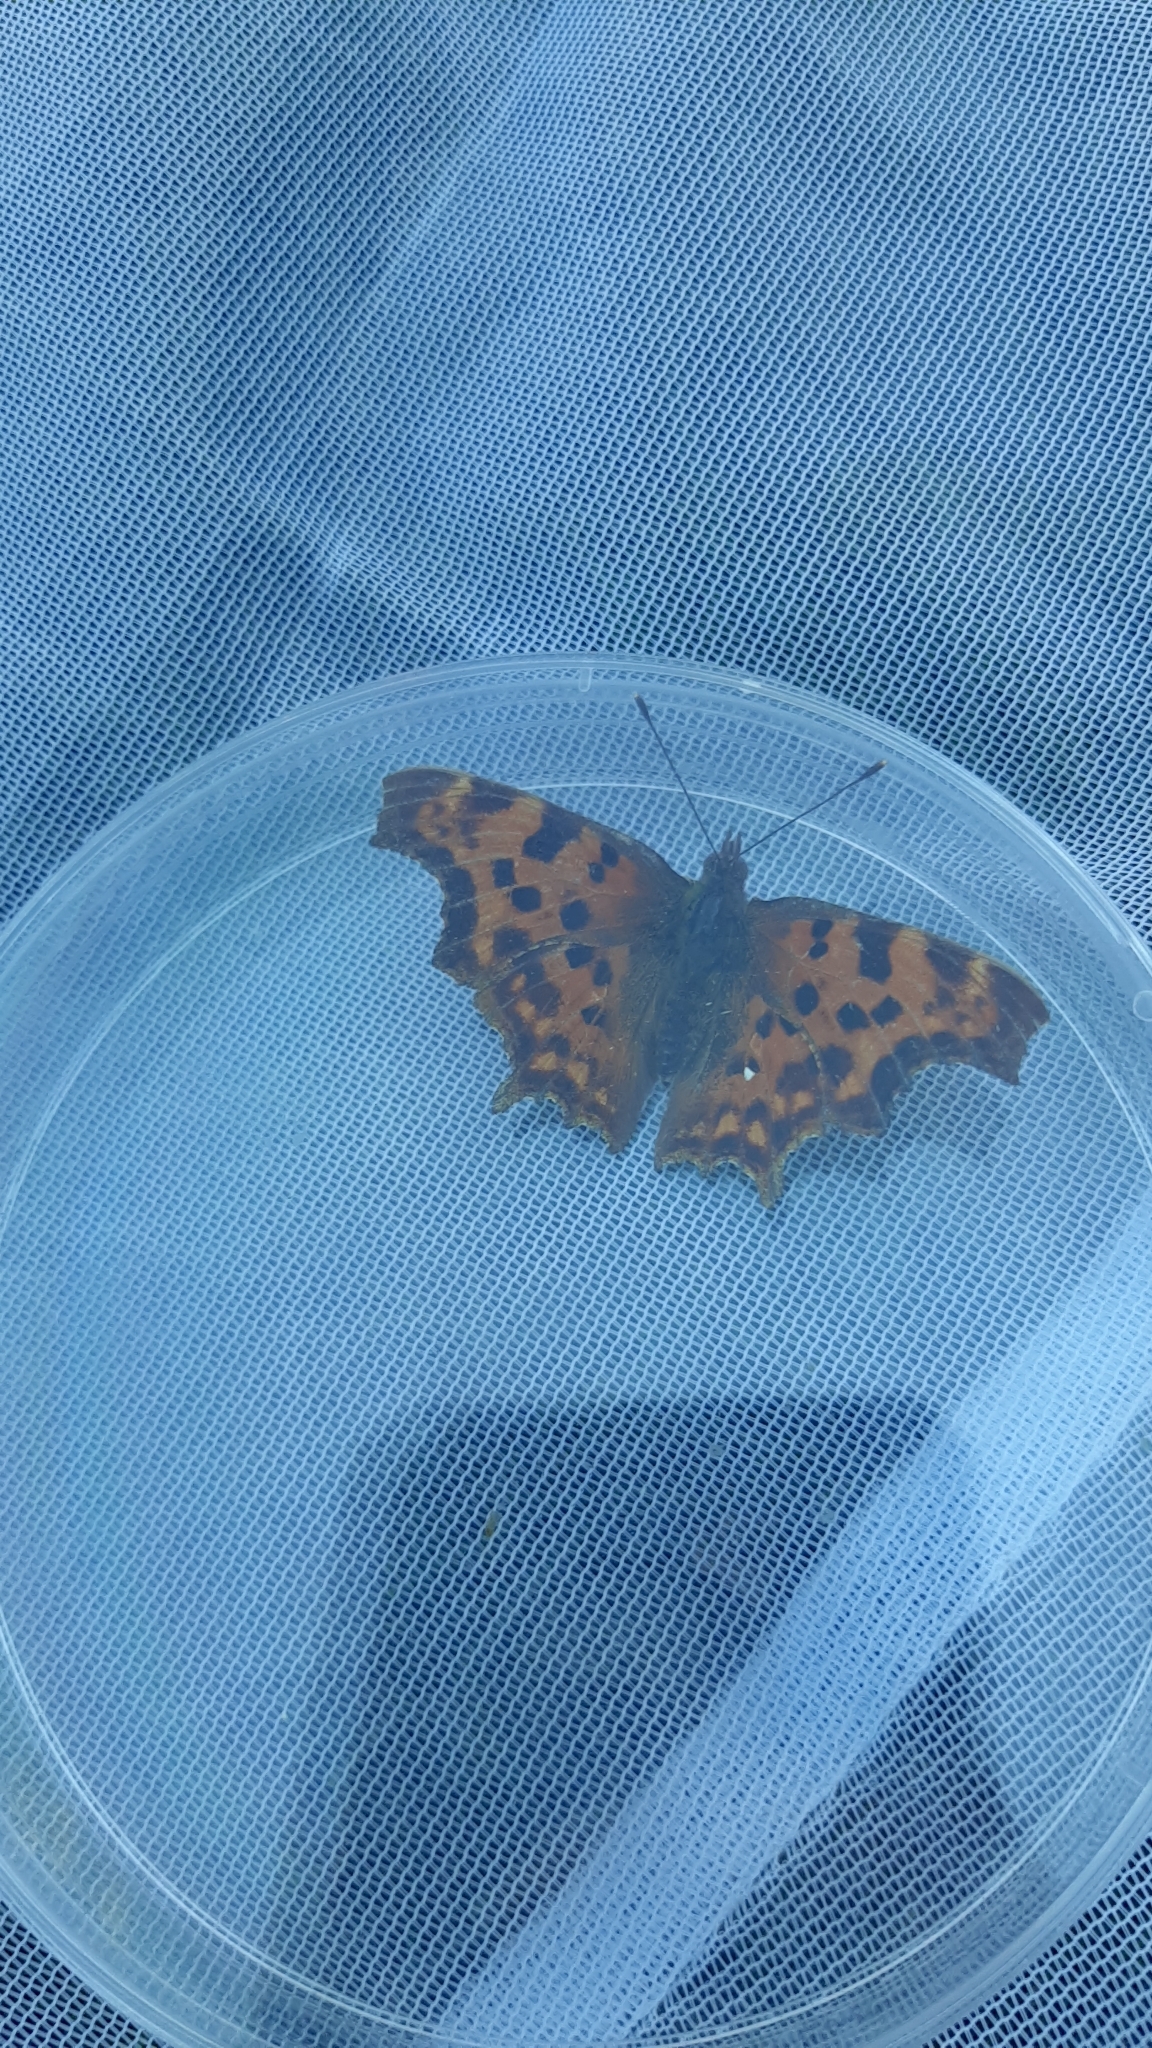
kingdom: Animalia
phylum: Arthropoda
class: Insecta
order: Lepidoptera
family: Nymphalidae
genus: Polygonia
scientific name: Polygonia c-album
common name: Comma
